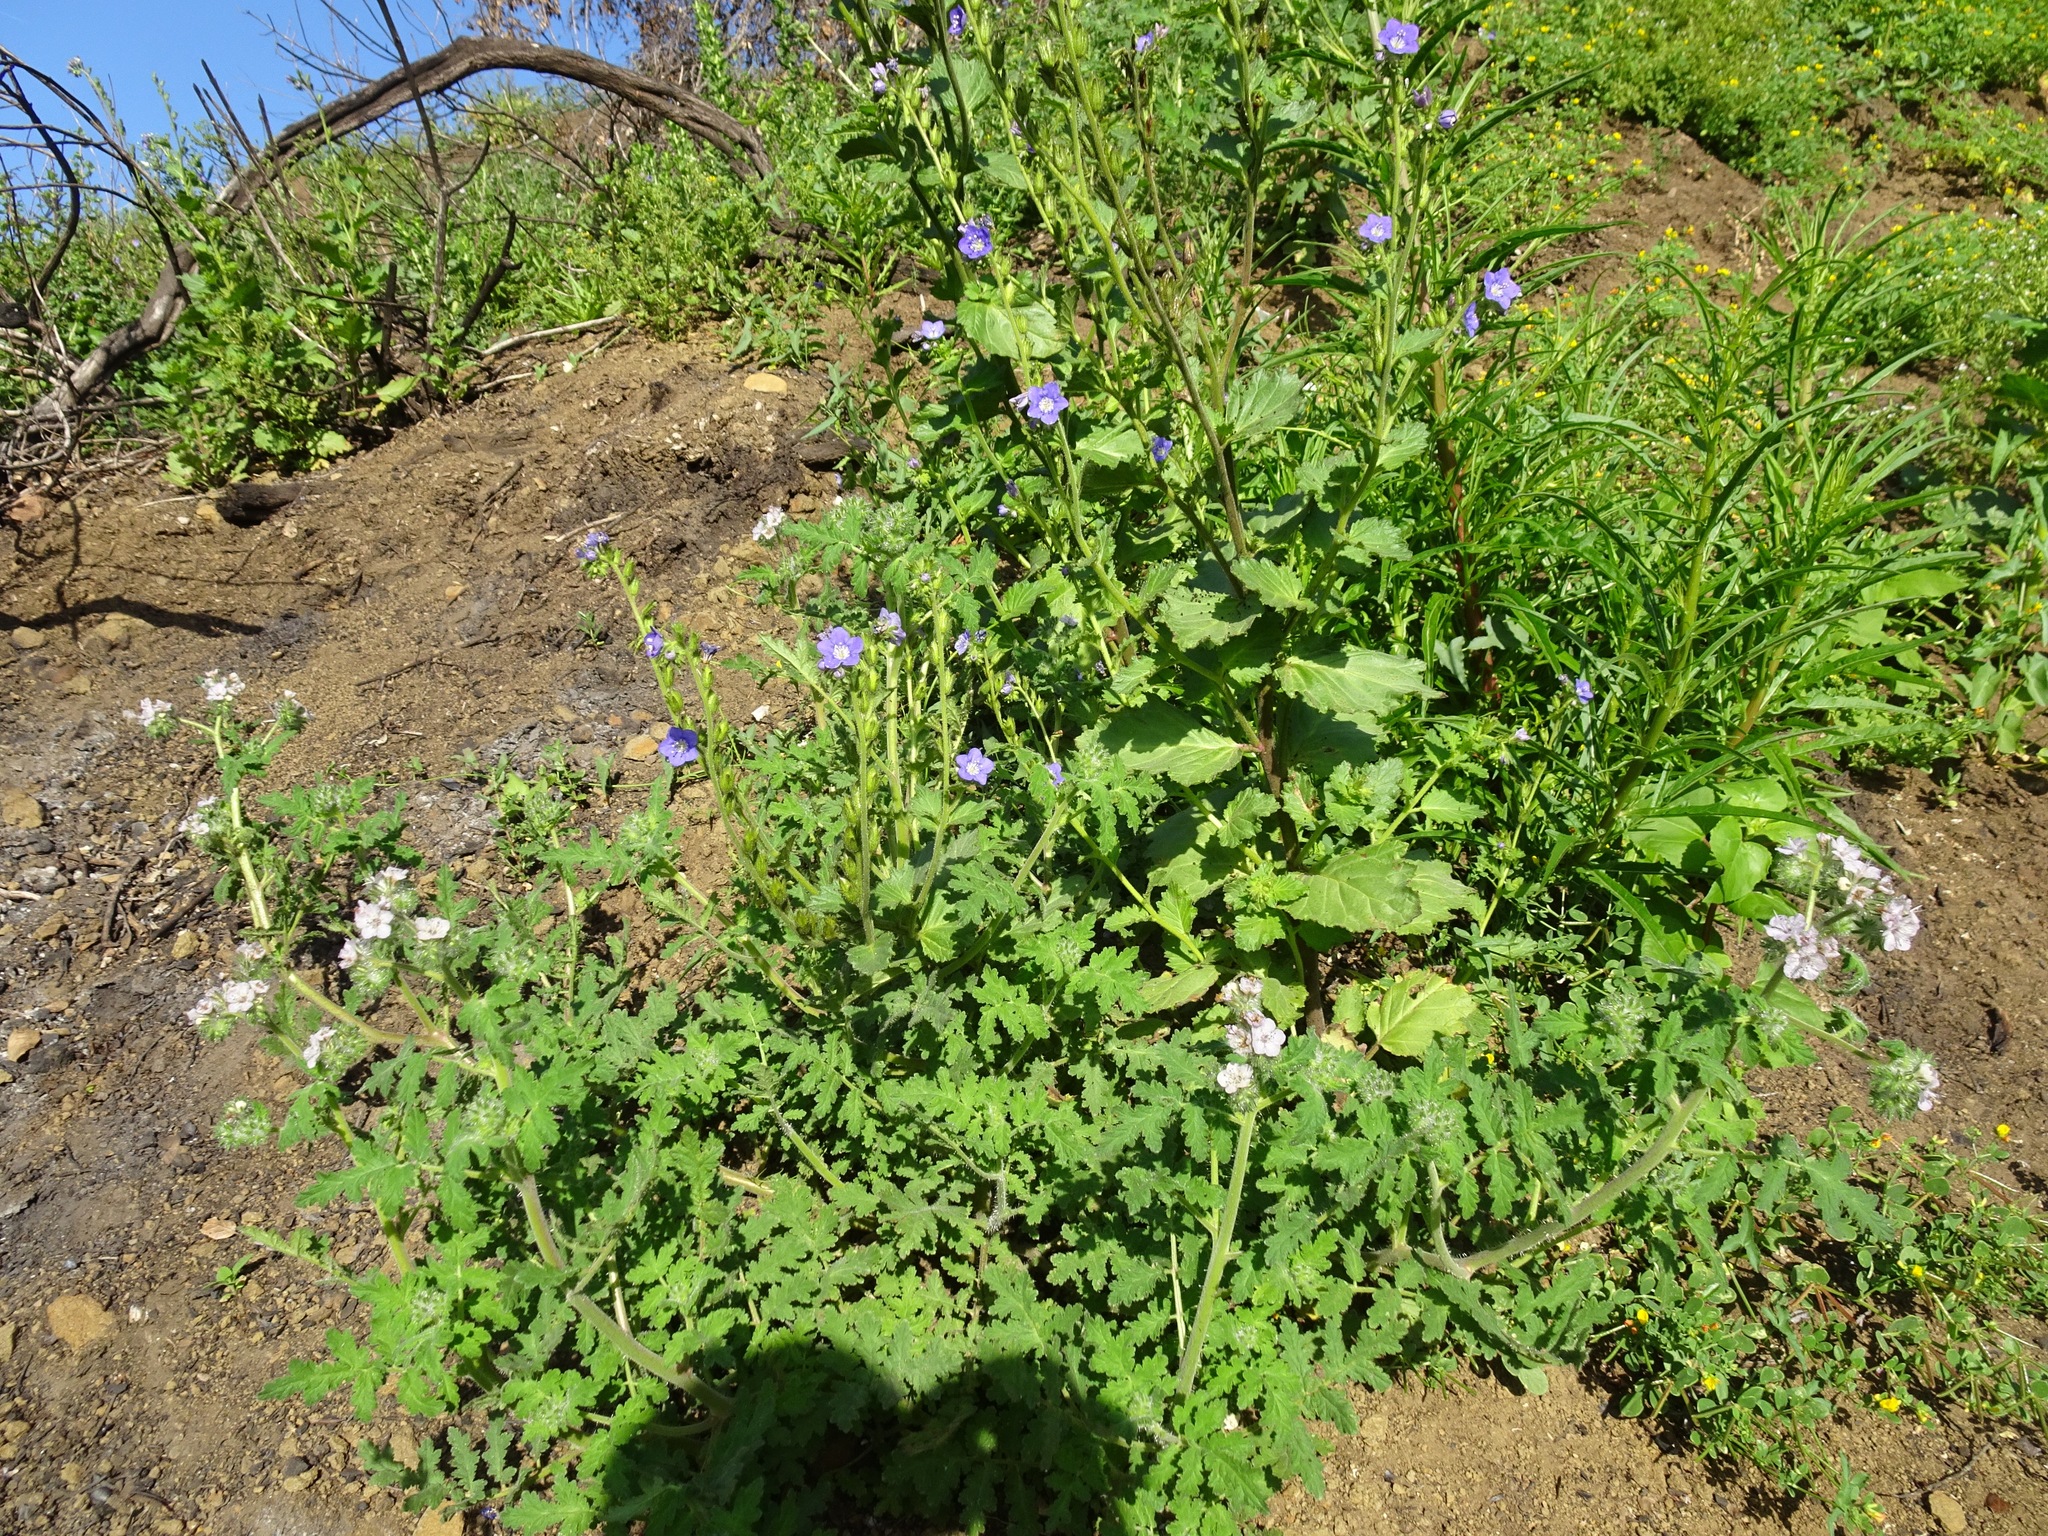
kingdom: Plantae
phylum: Tracheophyta
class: Magnoliopsida
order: Boraginales
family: Hydrophyllaceae
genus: Phacelia
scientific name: Phacelia cicutaria
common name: Caterpillar phacelia
